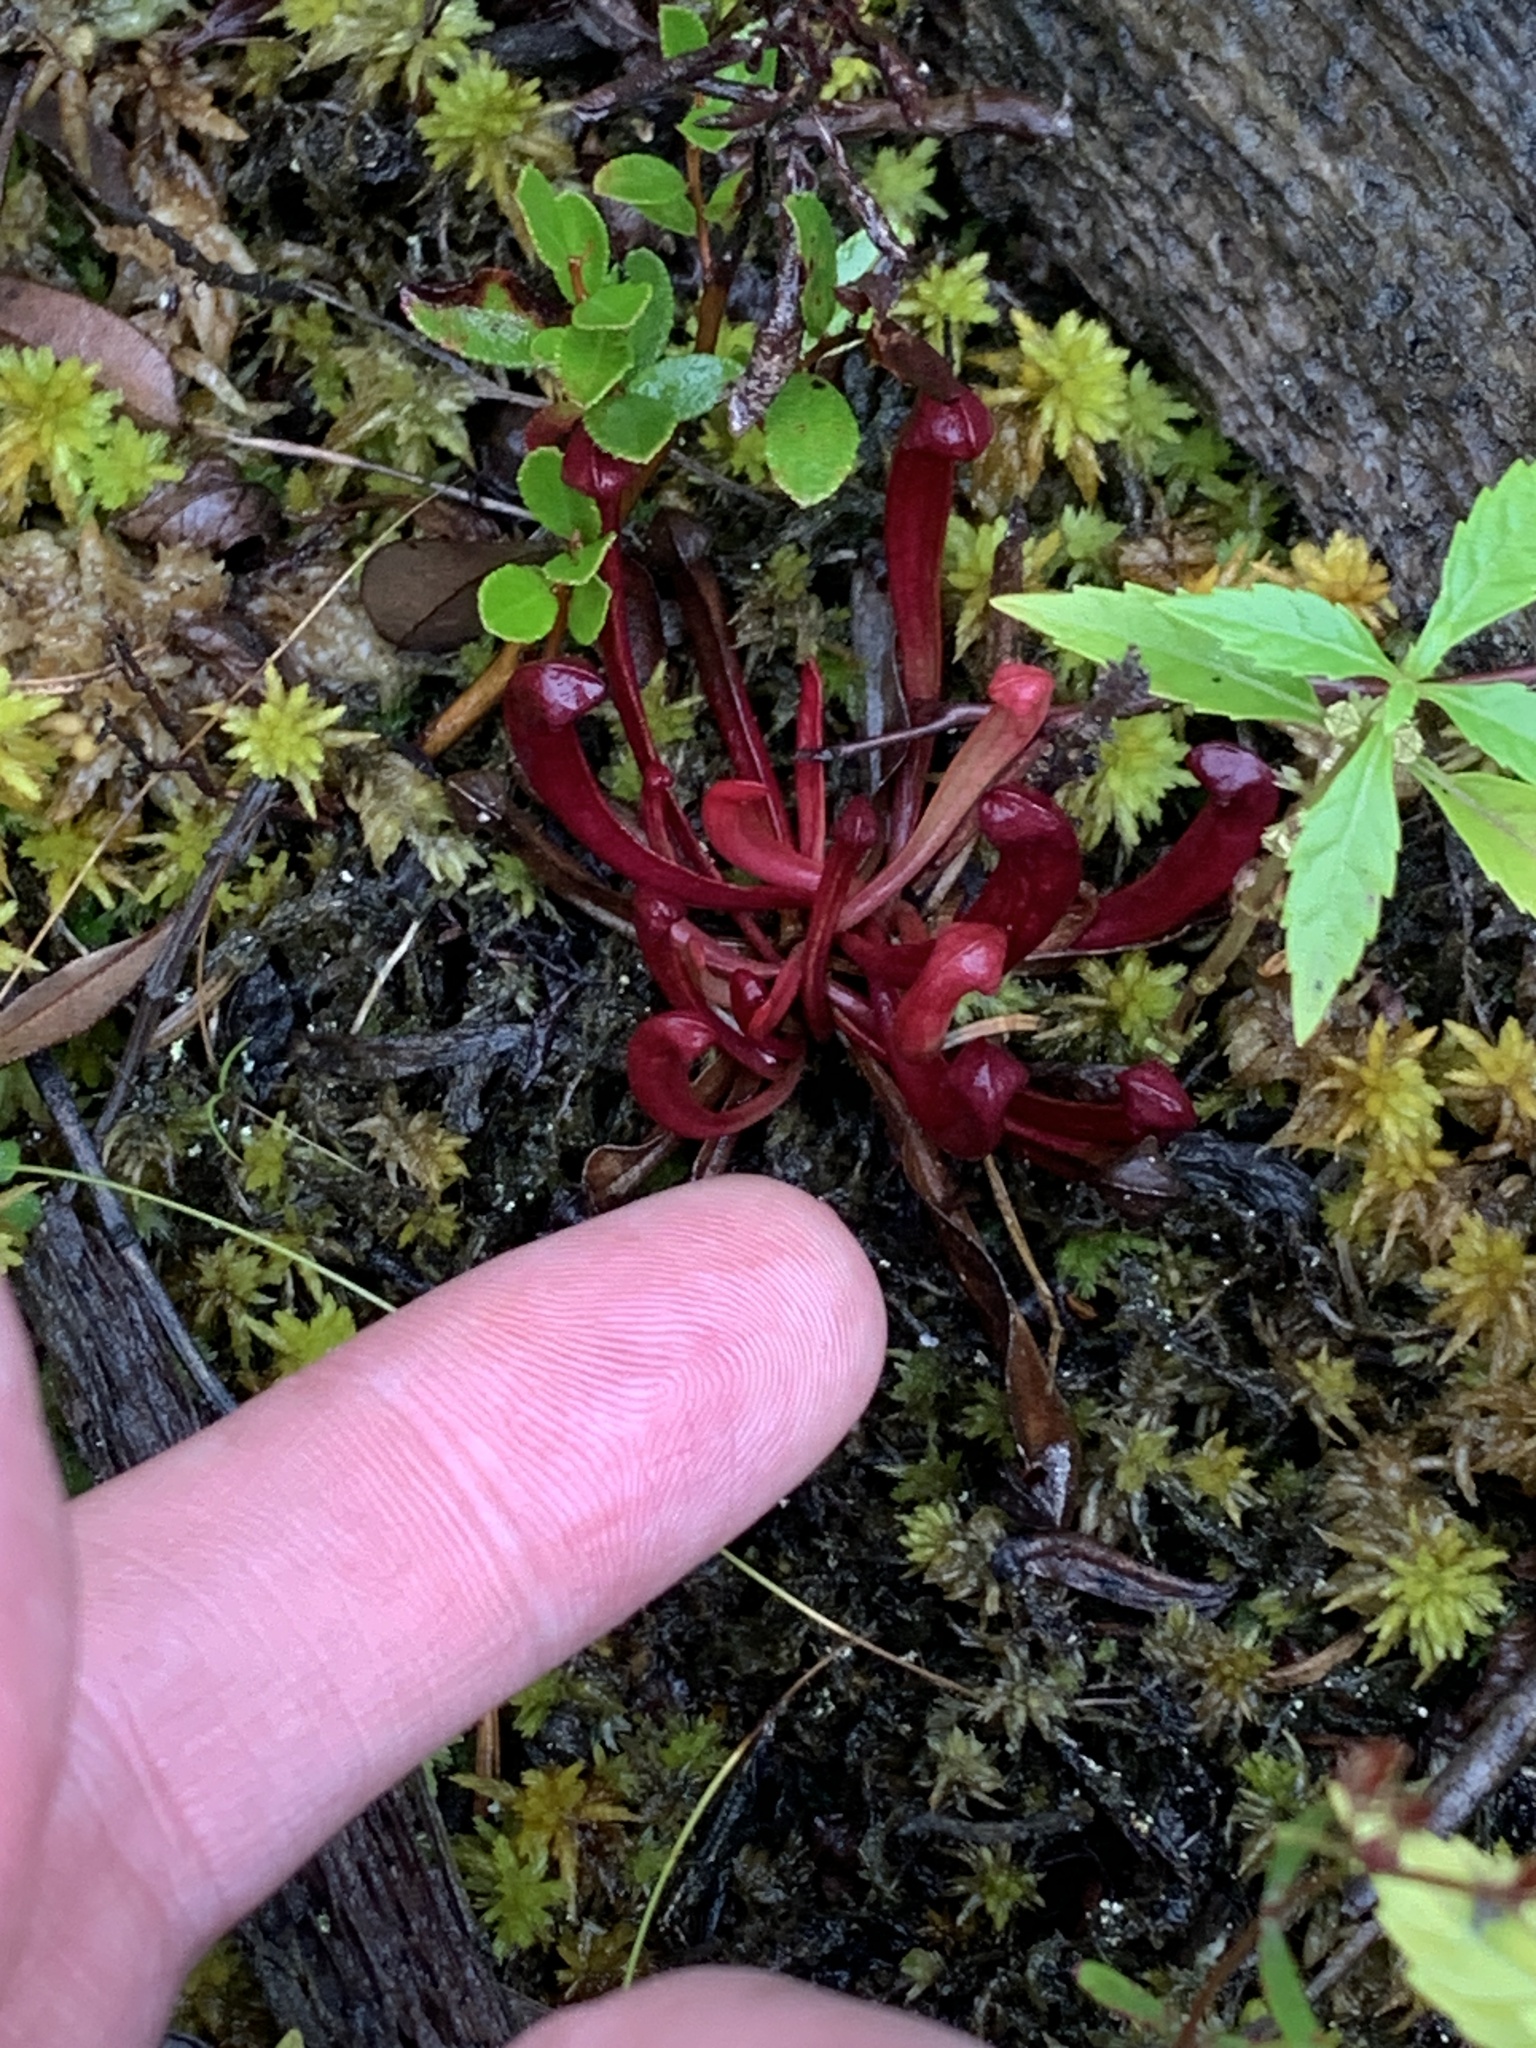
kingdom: Plantae
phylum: Tracheophyta
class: Magnoliopsida
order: Ericales
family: Sarraceniaceae
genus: Sarracenia
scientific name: Sarracenia purpurea
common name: Pitcherplant
